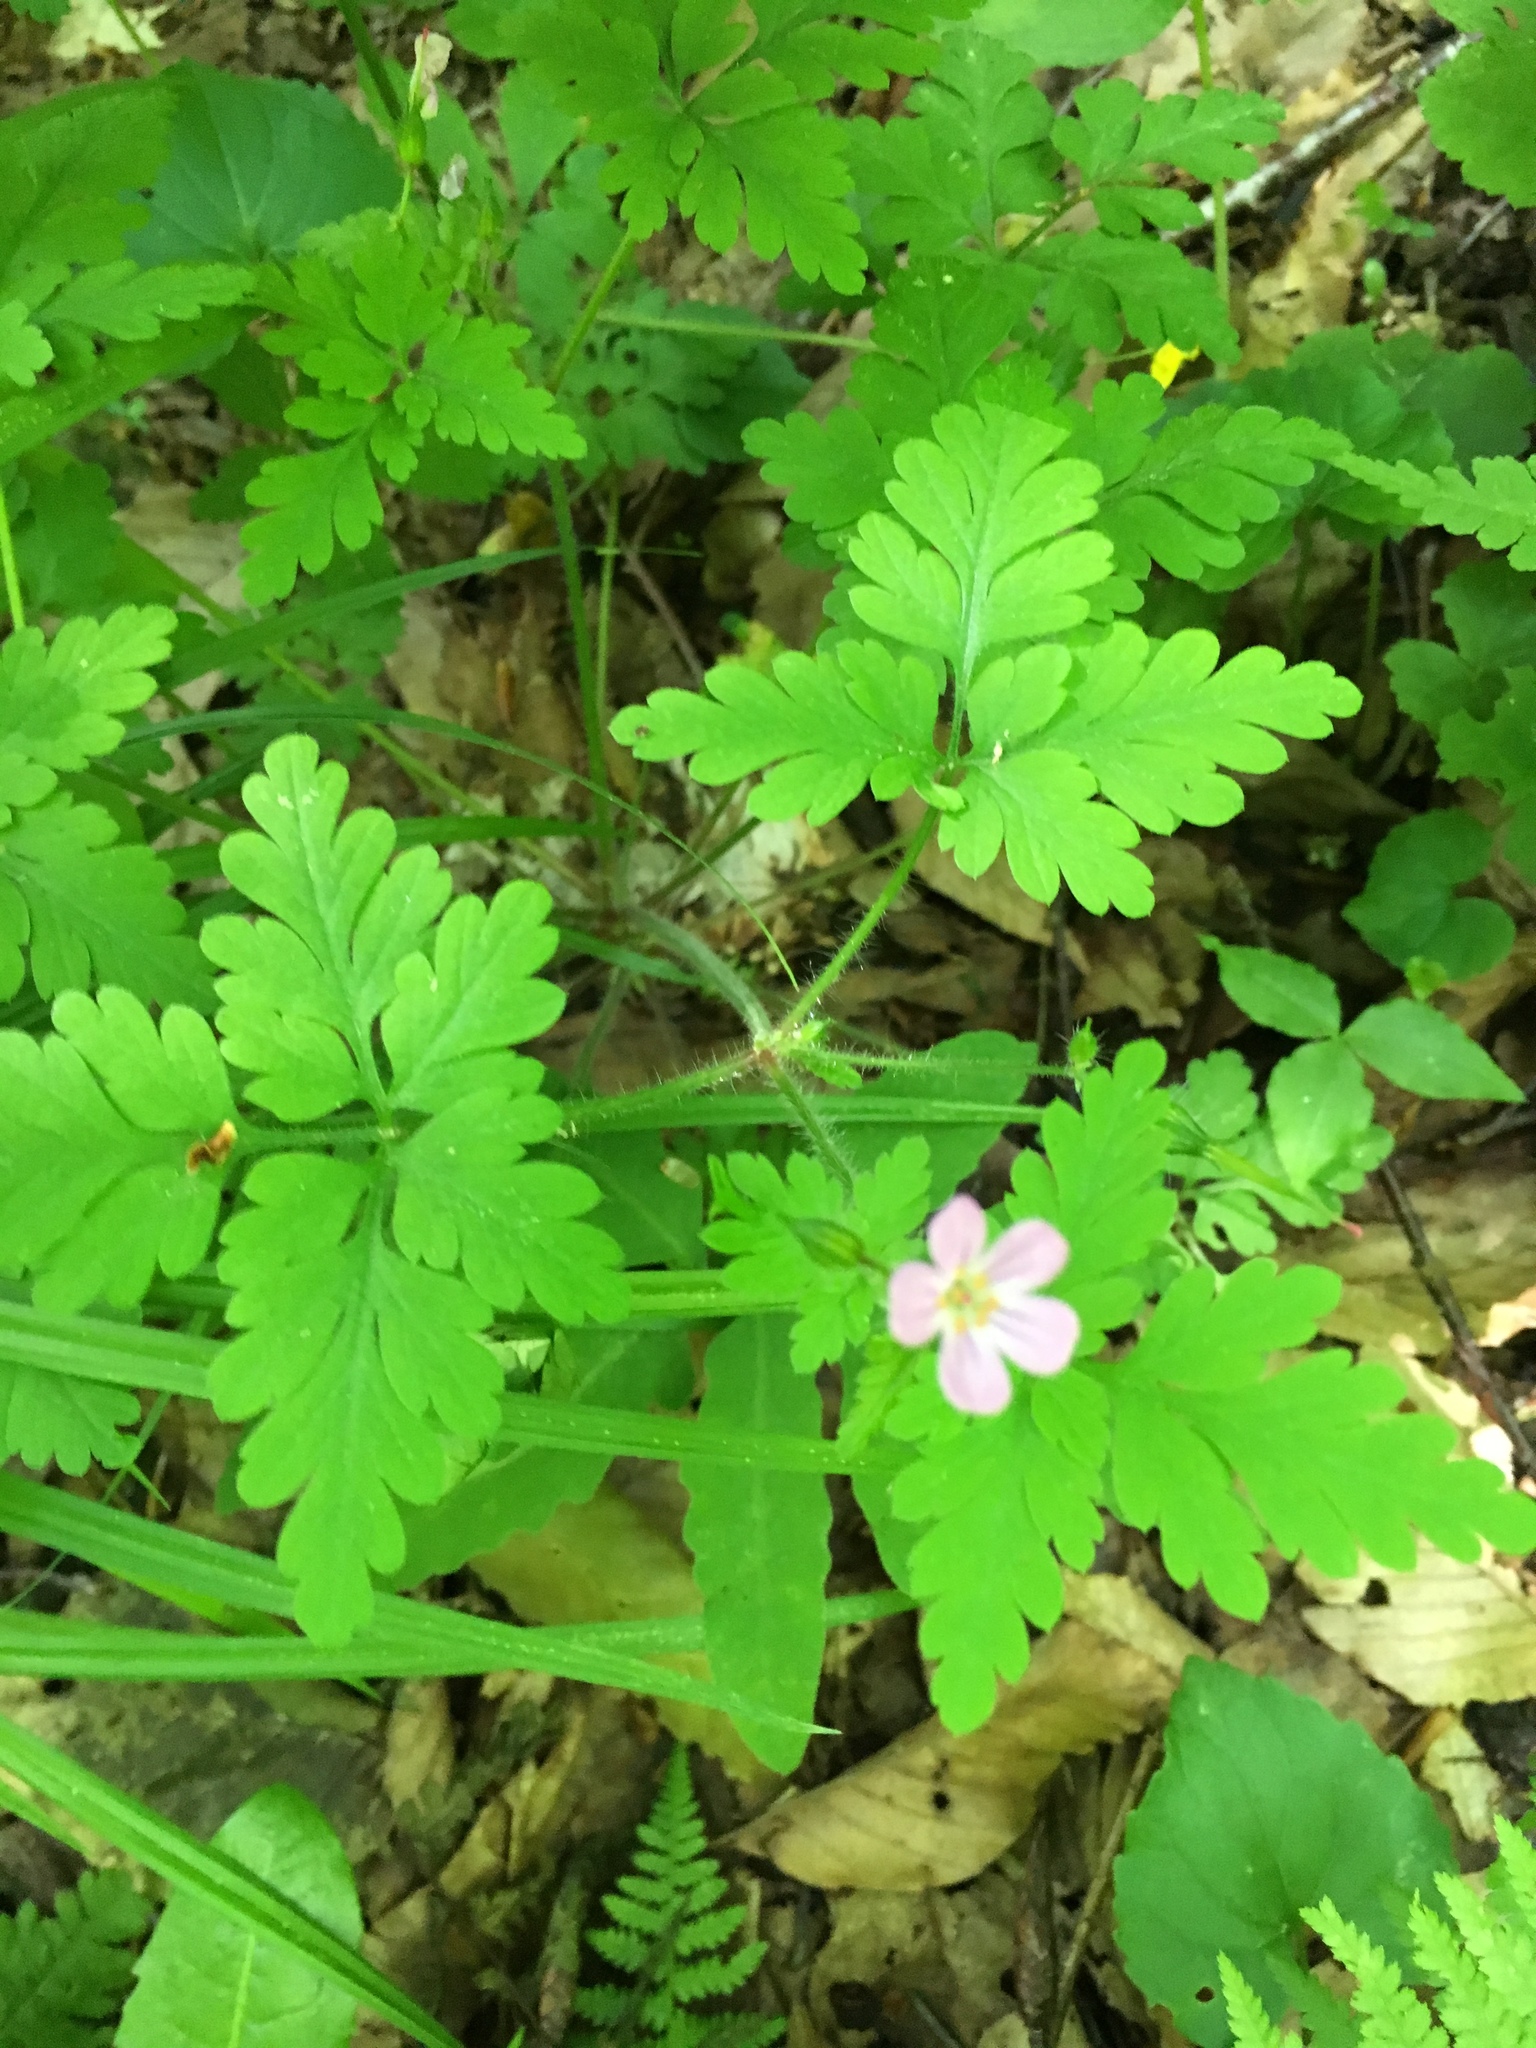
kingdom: Plantae
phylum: Tracheophyta
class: Magnoliopsida
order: Geraniales
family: Geraniaceae
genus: Geranium
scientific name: Geranium robertianum
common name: Herb-robert
